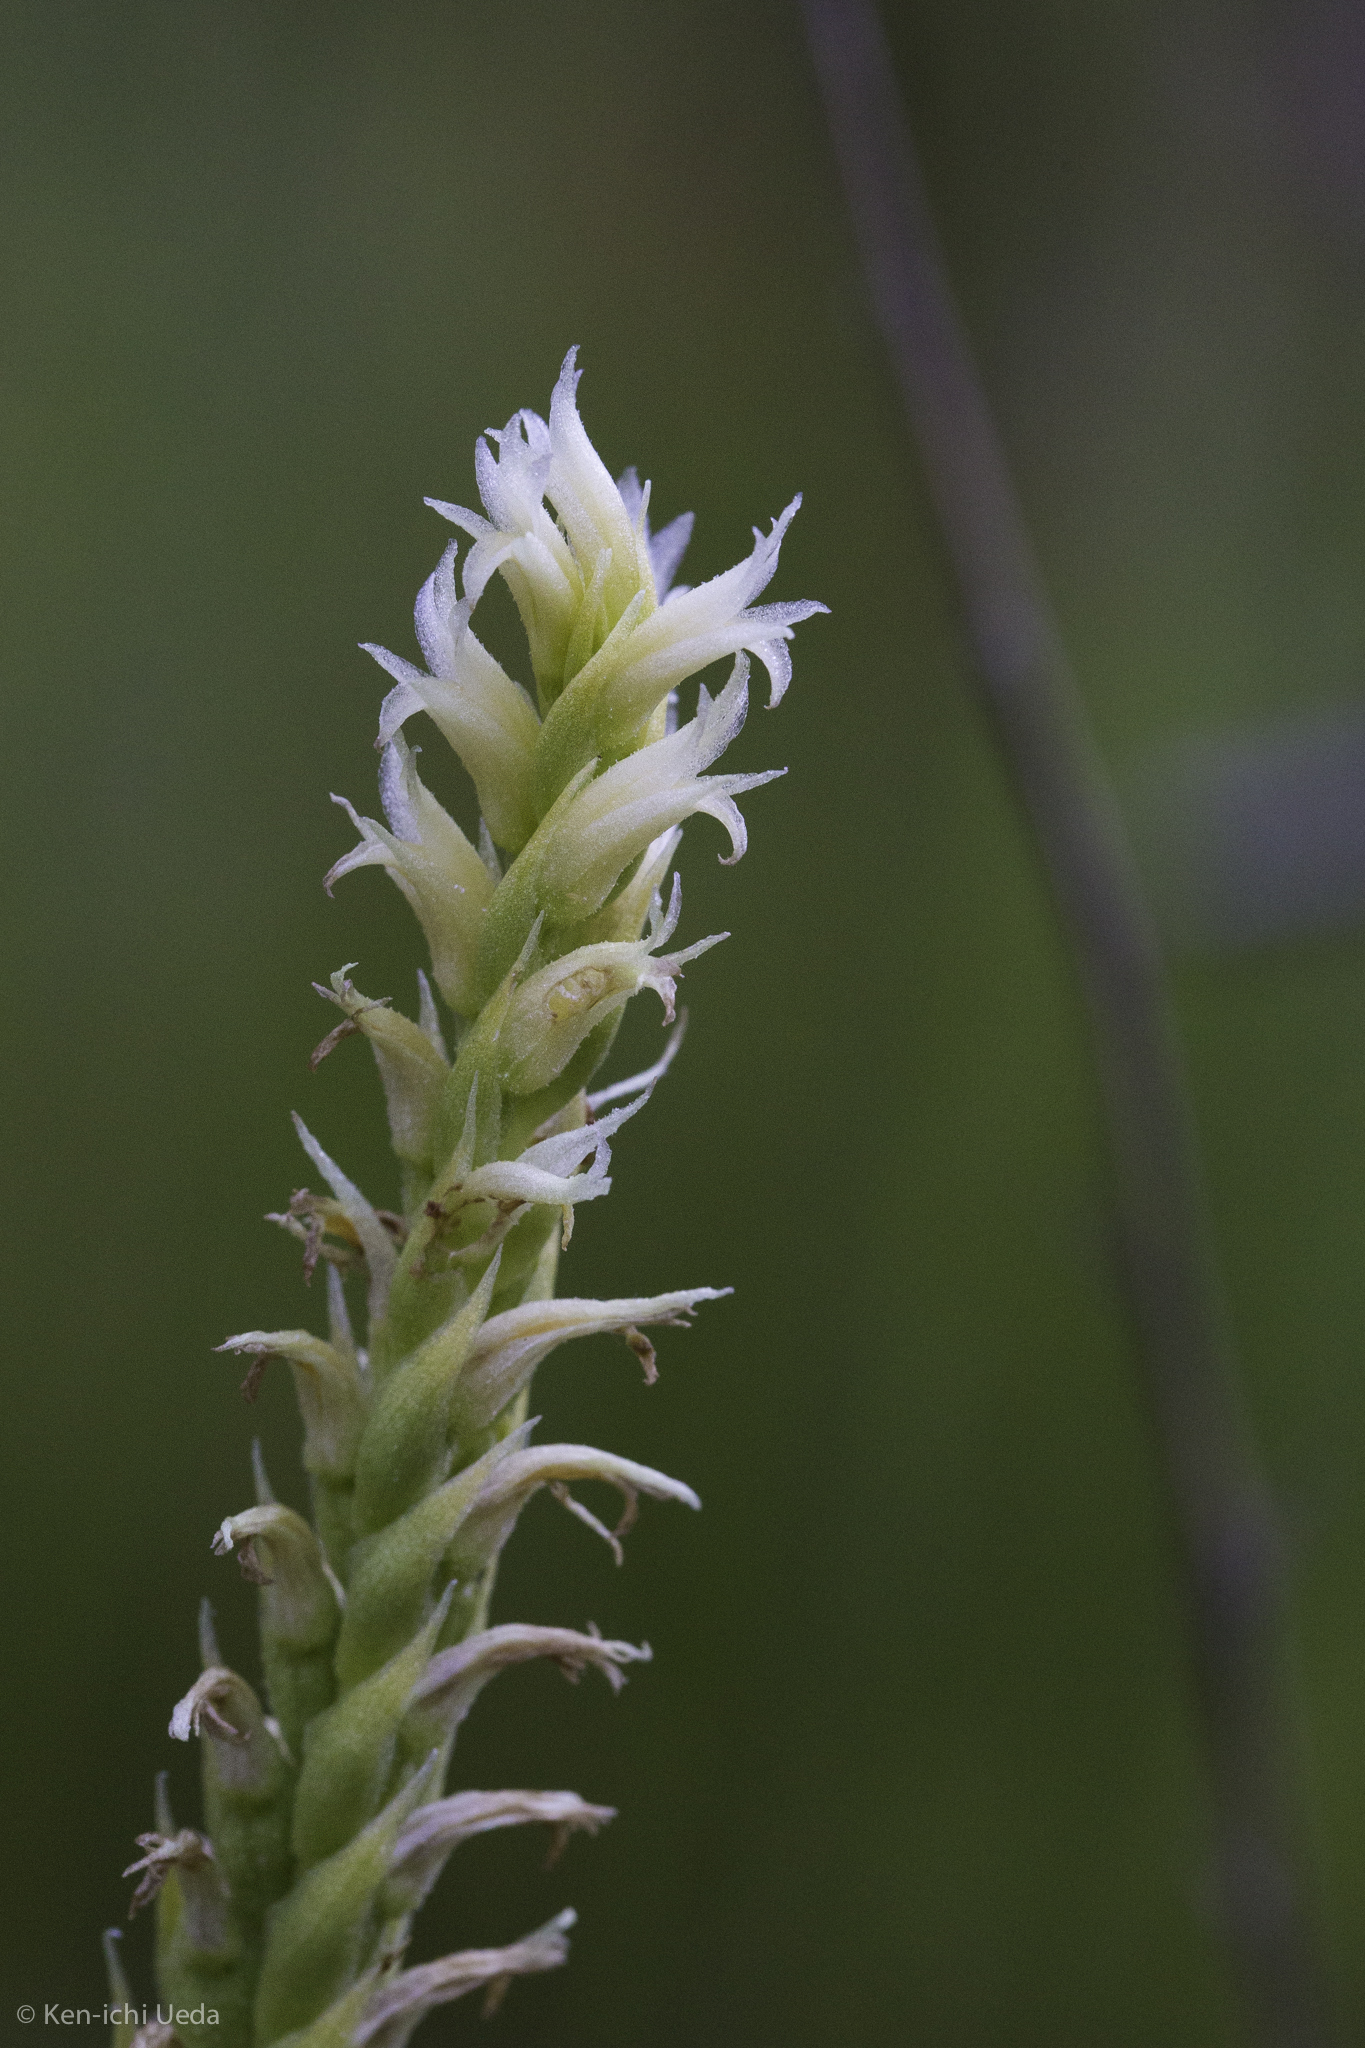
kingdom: Plantae
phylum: Tracheophyta
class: Liliopsida
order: Asparagales
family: Orchidaceae
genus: Spiranthes
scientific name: Spiranthes porrifolia
